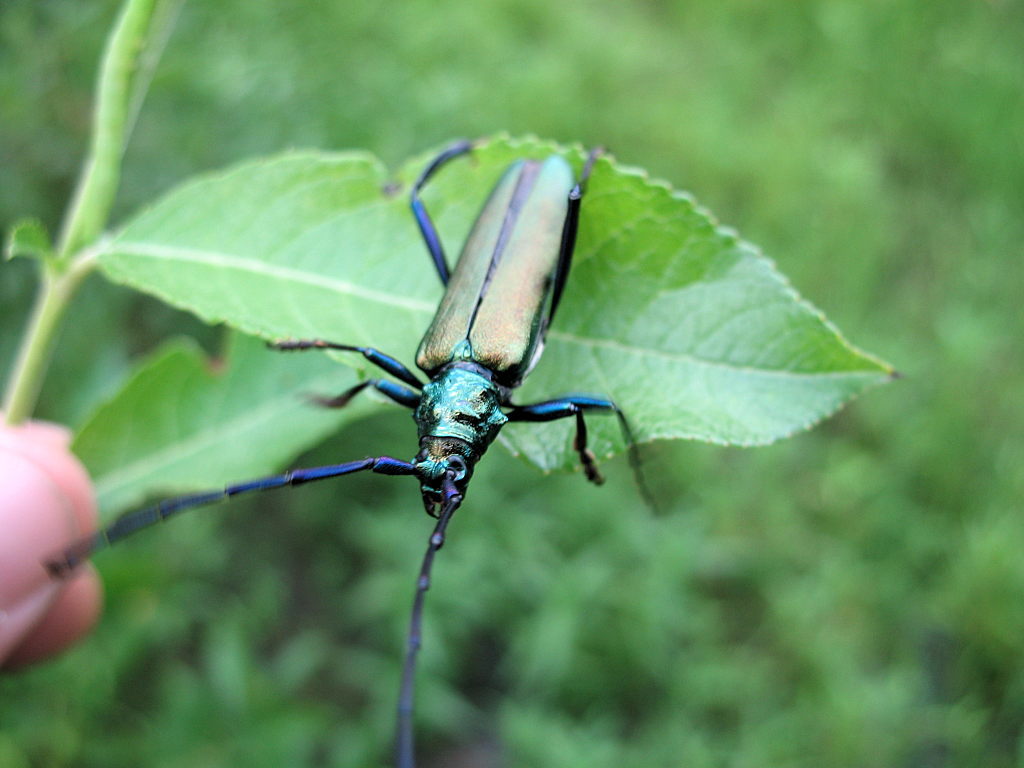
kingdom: Animalia
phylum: Arthropoda
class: Insecta
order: Coleoptera
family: Cerambycidae
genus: Aromia
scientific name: Aromia moschata
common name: Musk beetle
